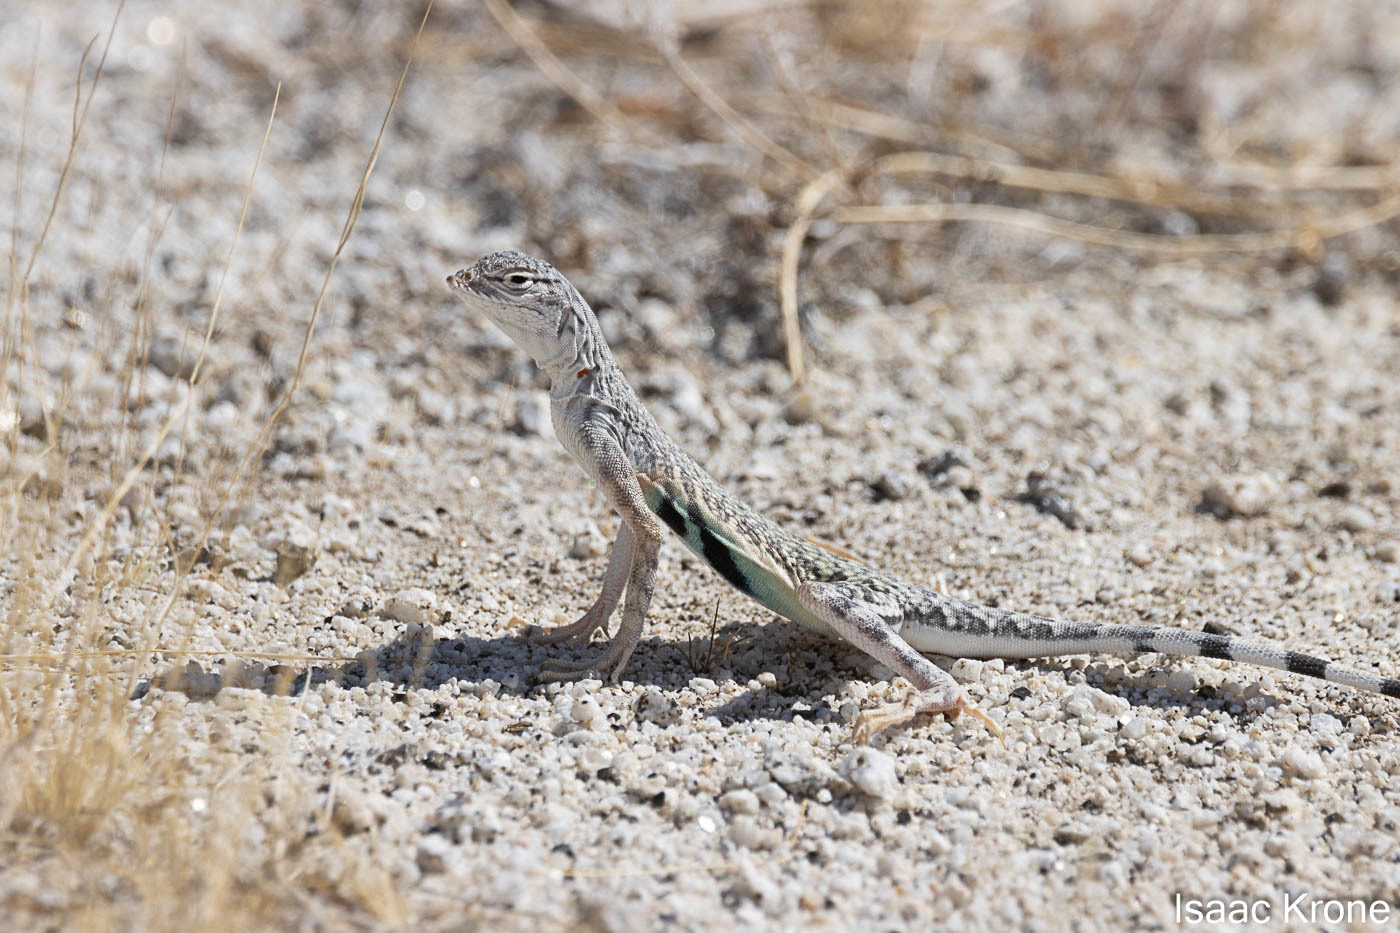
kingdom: Animalia
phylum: Chordata
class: Squamata
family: Phrynosomatidae
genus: Callisaurus
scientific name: Callisaurus draconoides
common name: Zebra-tailed lizard
